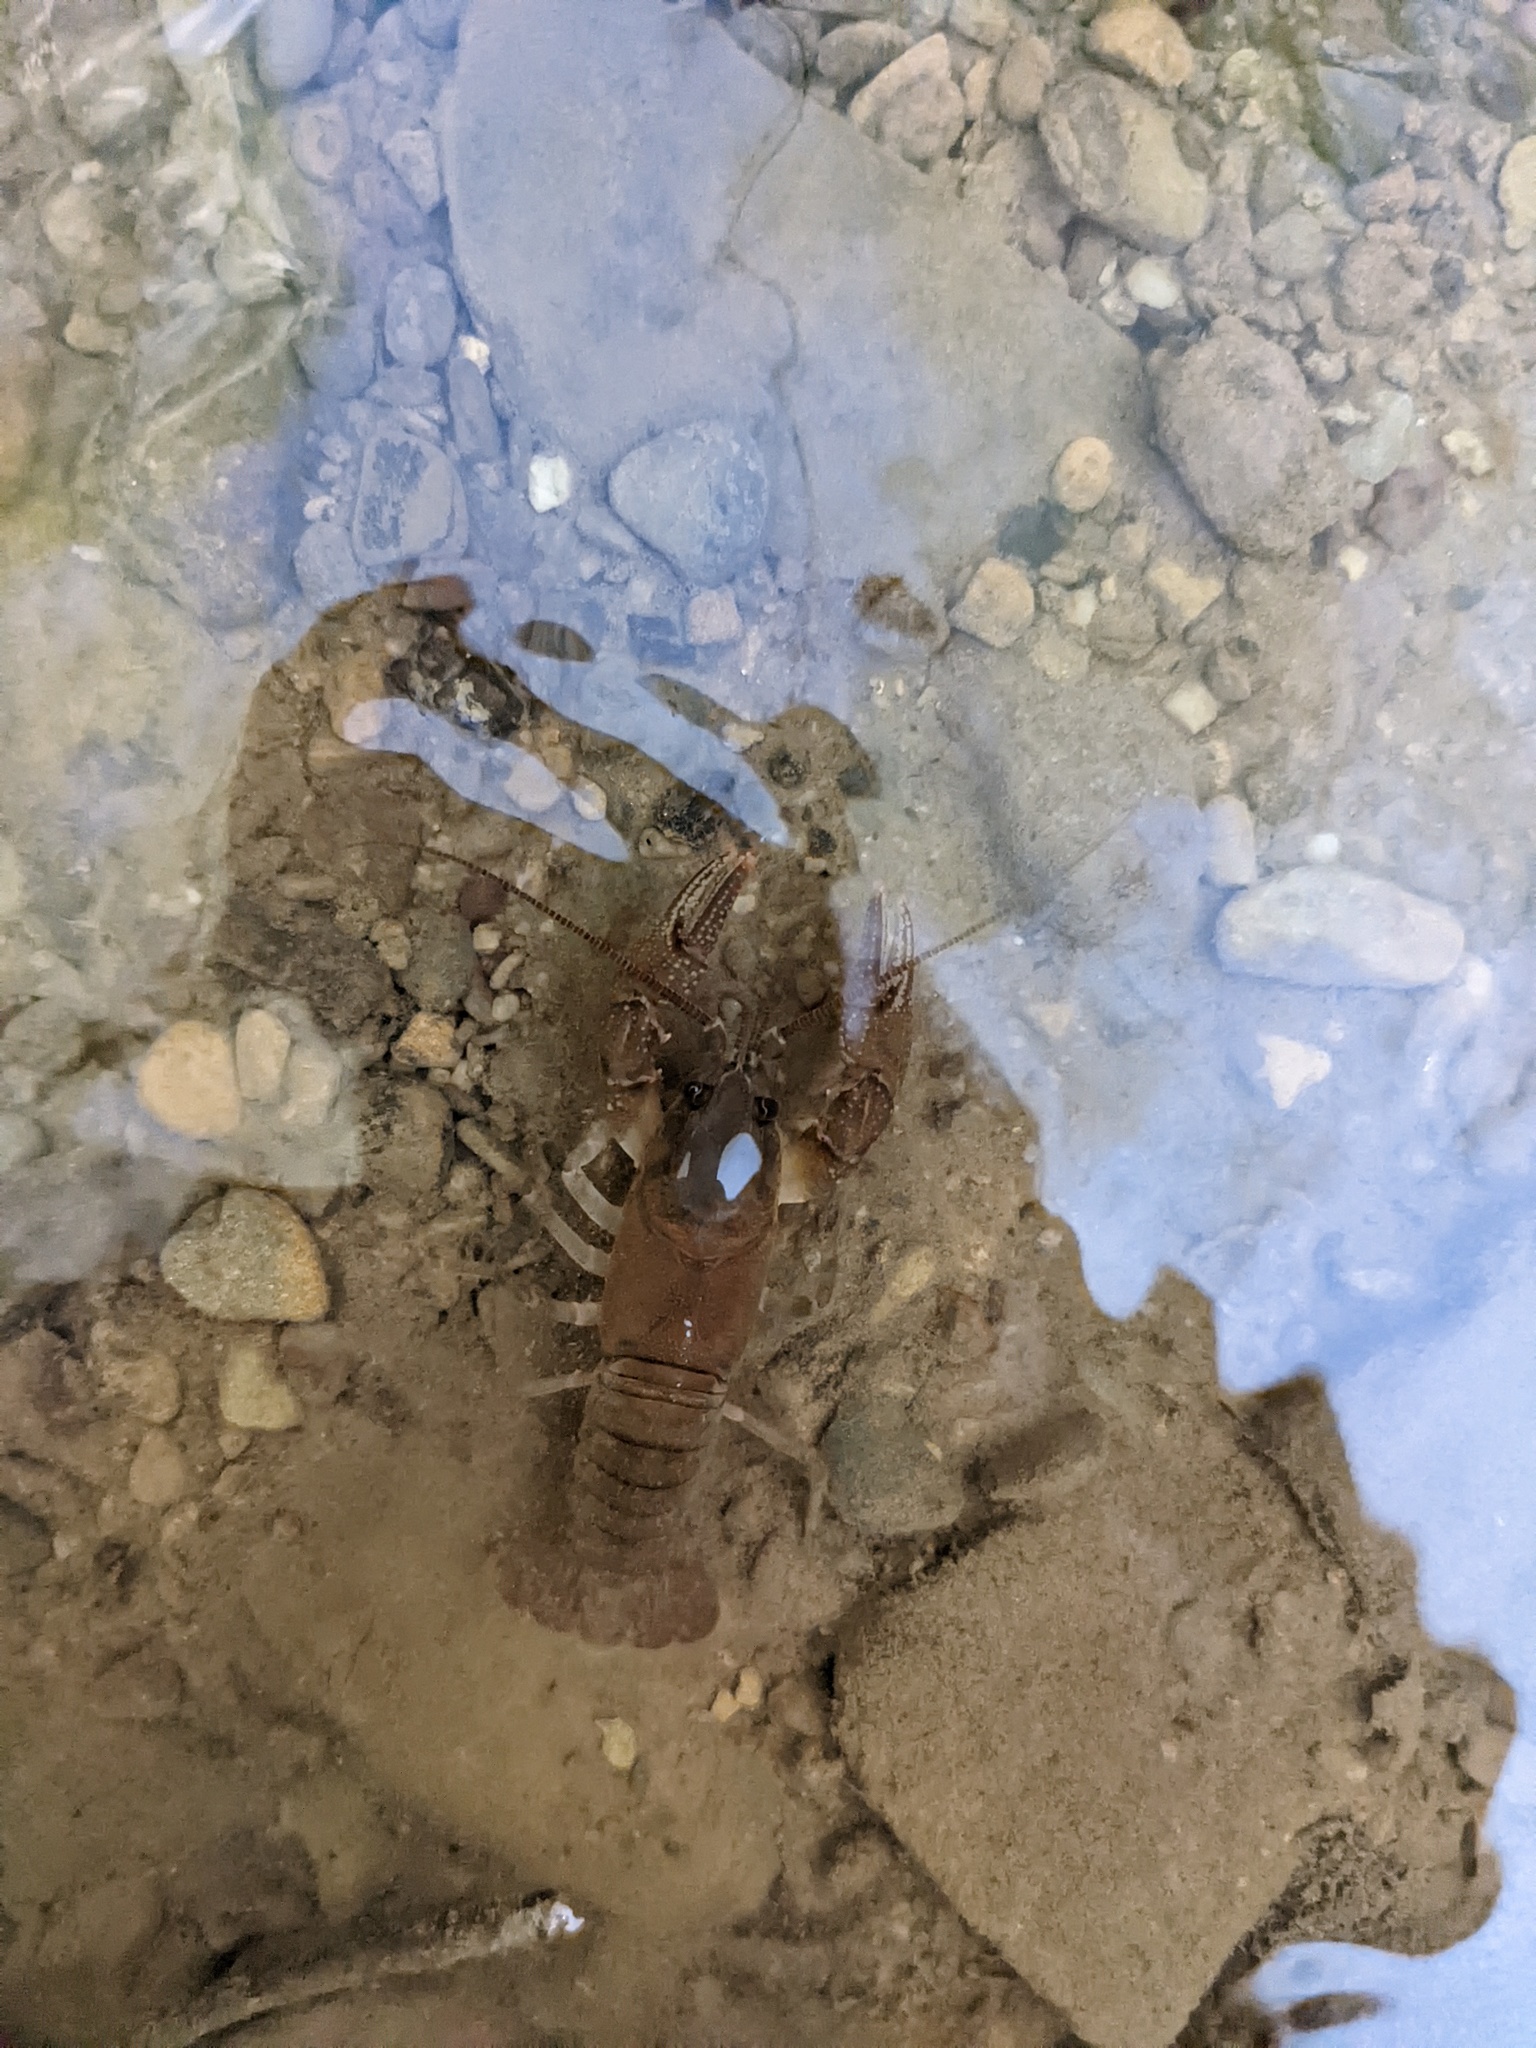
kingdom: Animalia
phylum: Arthropoda
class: Malacostraca
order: Decapoda
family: Cambaridae
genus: Cambarus
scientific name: Cambarus carinirostris
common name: Rock crayfish
